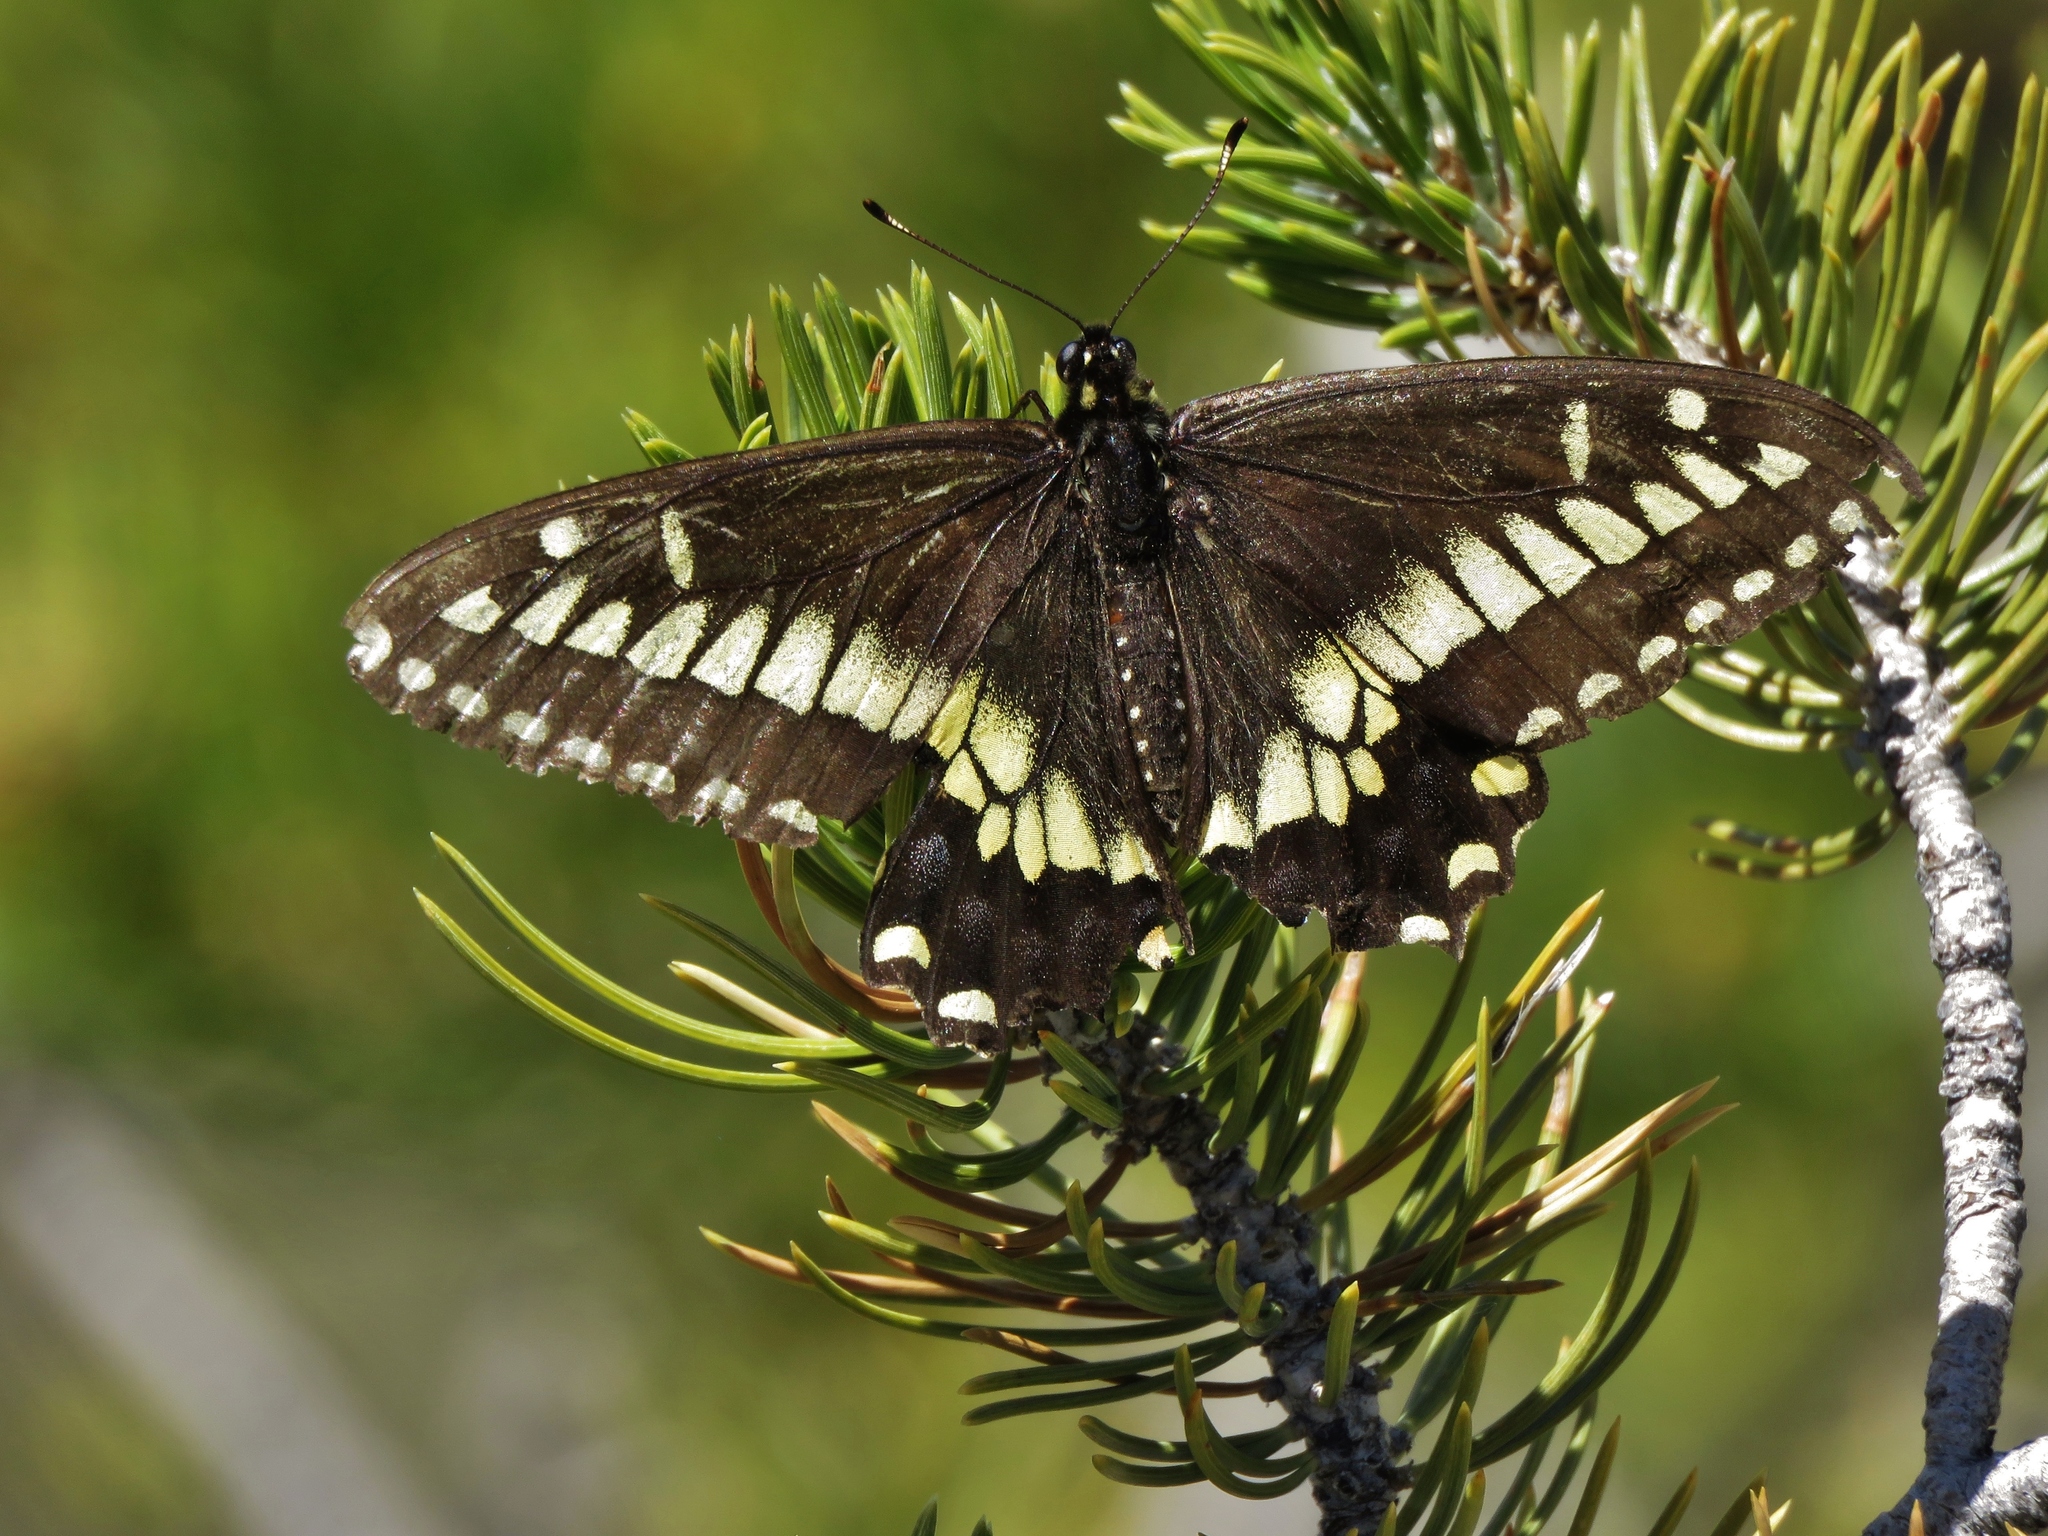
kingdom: Animalia
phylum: Arthropoda
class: Insecta
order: Lepidoptera
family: Papilionidae
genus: Papilio
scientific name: Papilio polyxenes
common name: Black swallowtail
